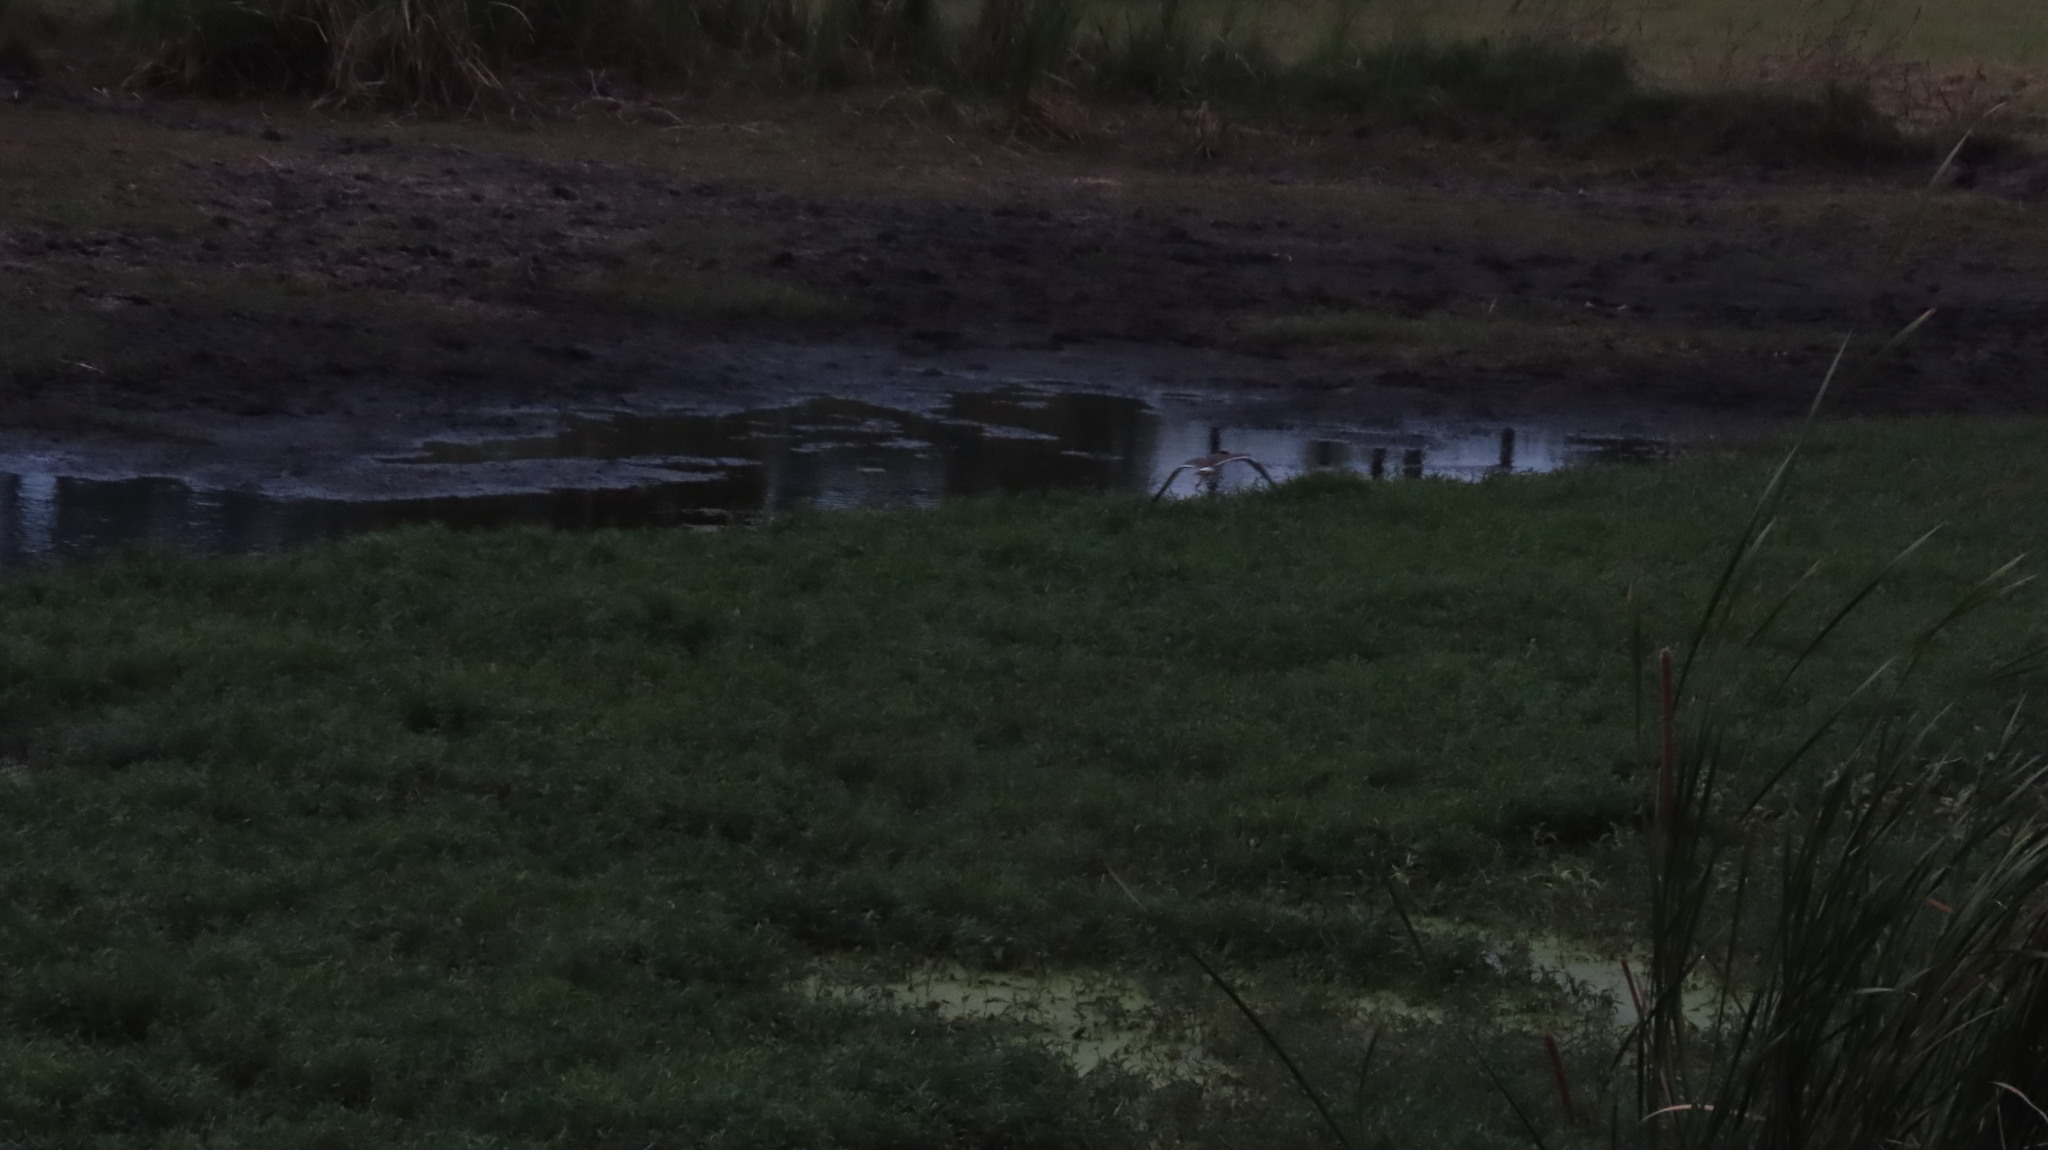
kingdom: Animalia
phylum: Chordata
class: Aves
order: Charadriiformes
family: Charadriidae
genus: Vanellus
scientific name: Vanellus indicus
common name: Red-wattled lapwing
